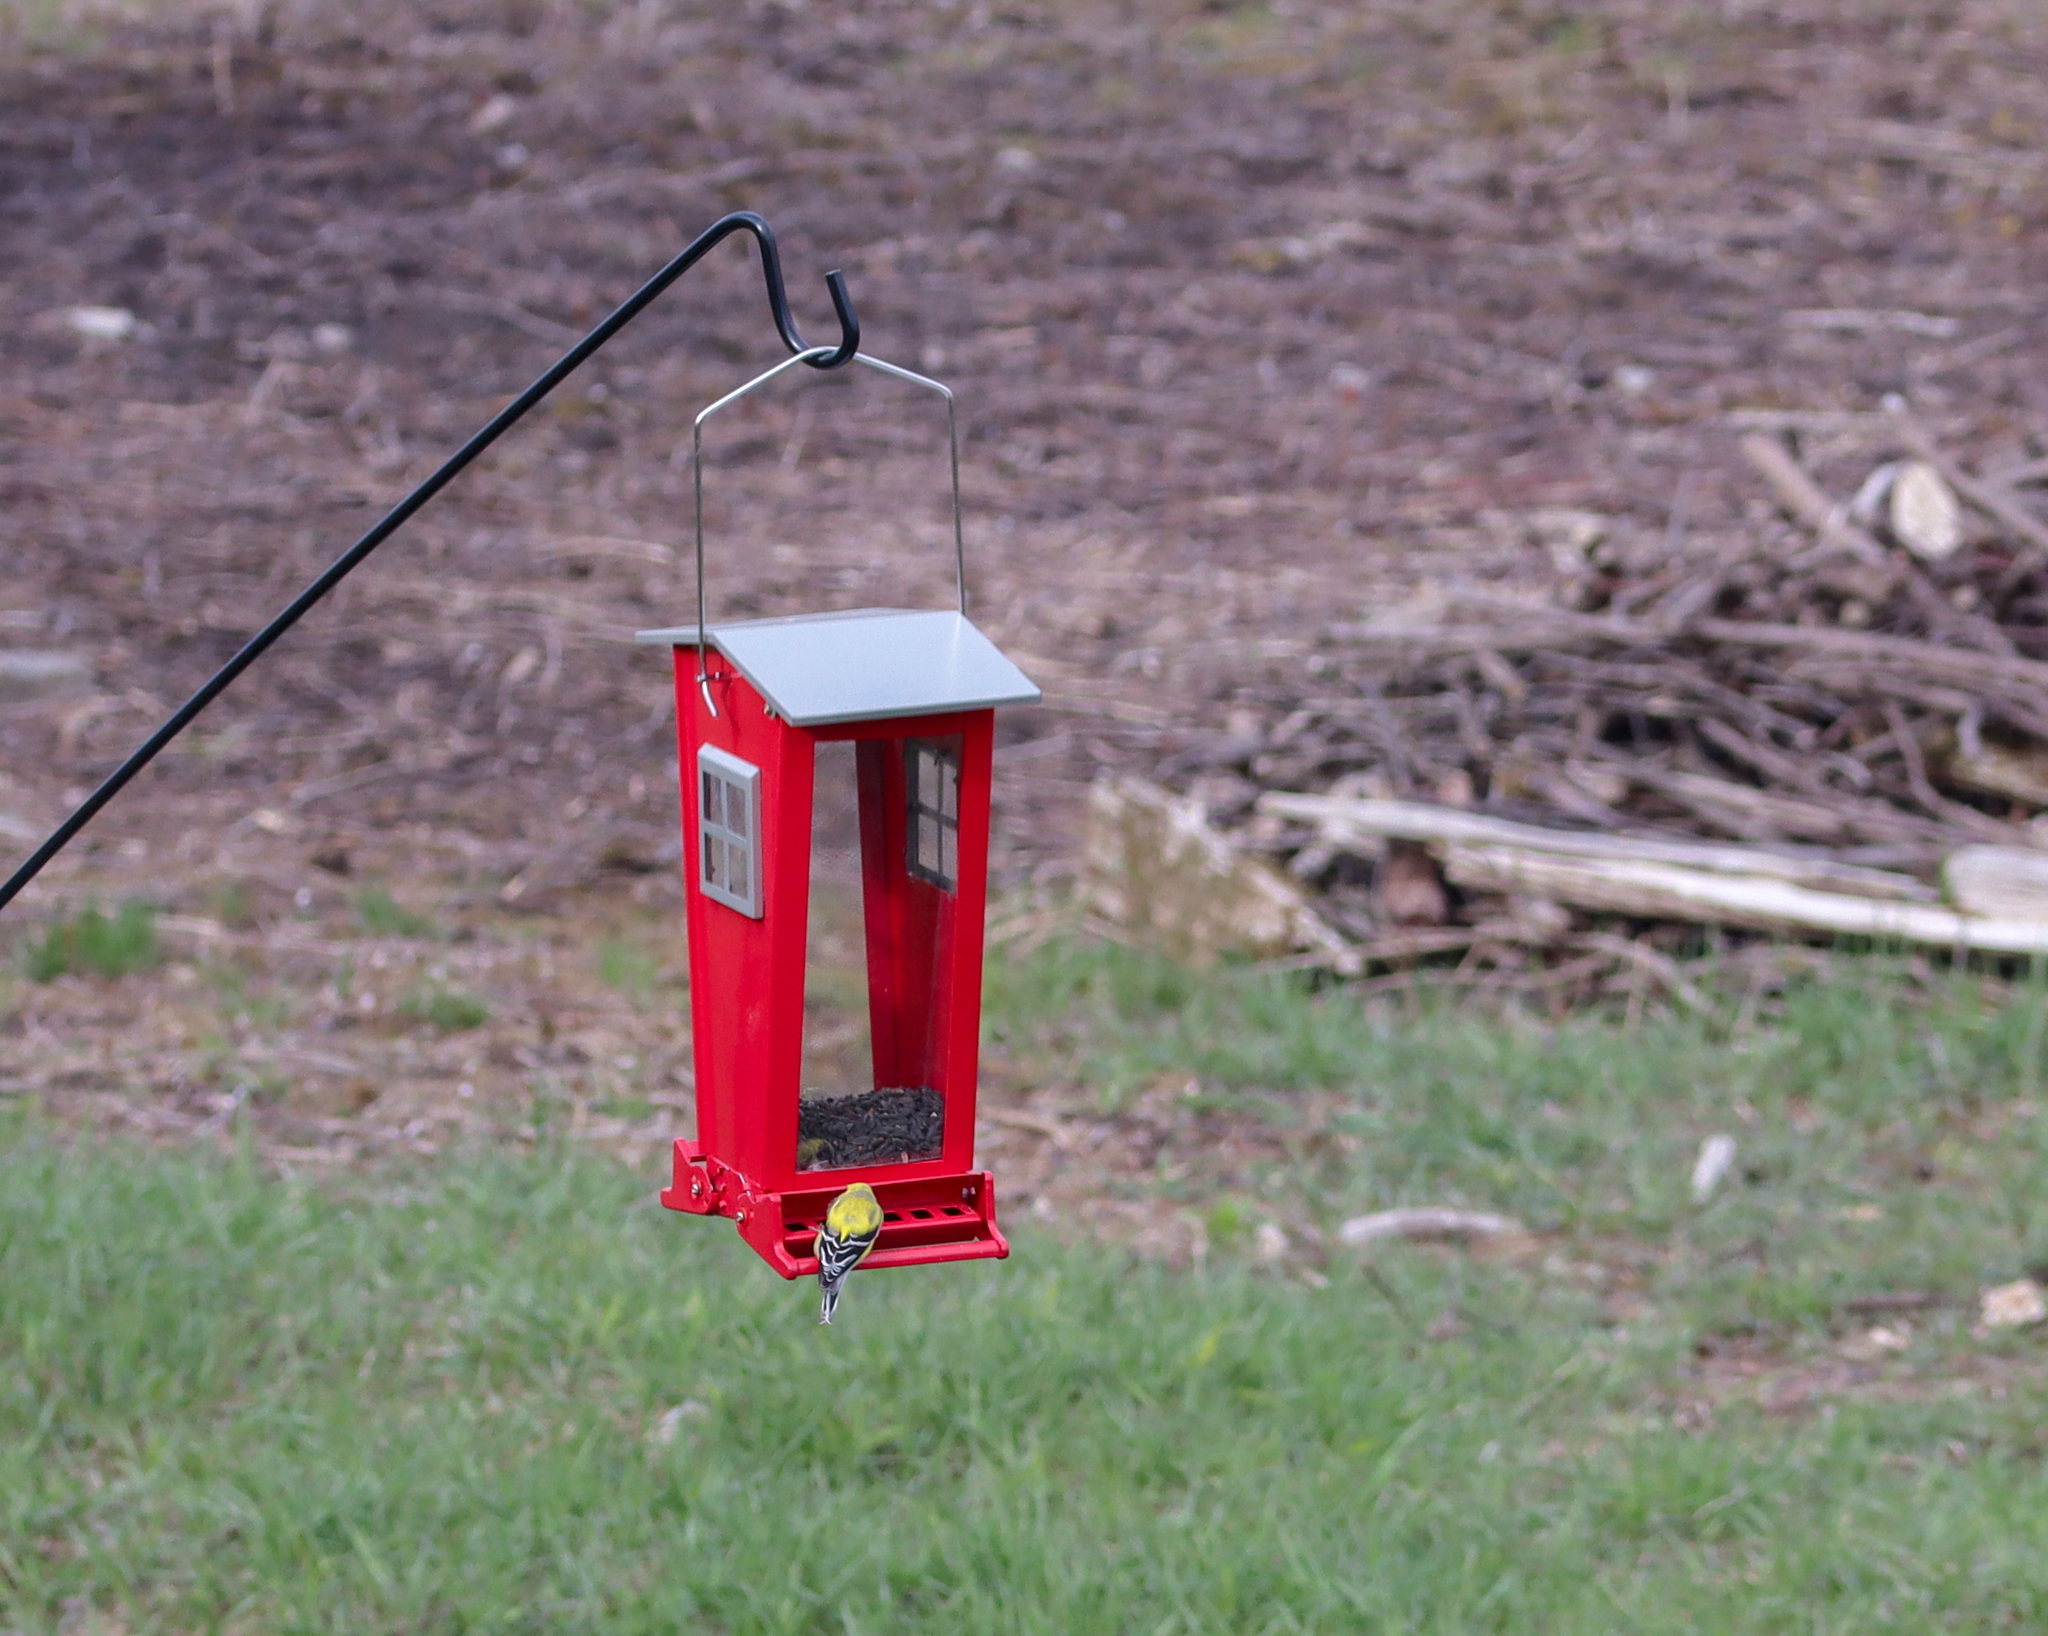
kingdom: Animalia
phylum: Chordata
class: Aves
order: Passeriformes
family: Fringillidae
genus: Spinus
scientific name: Spinus tristis
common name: American goldfinch
